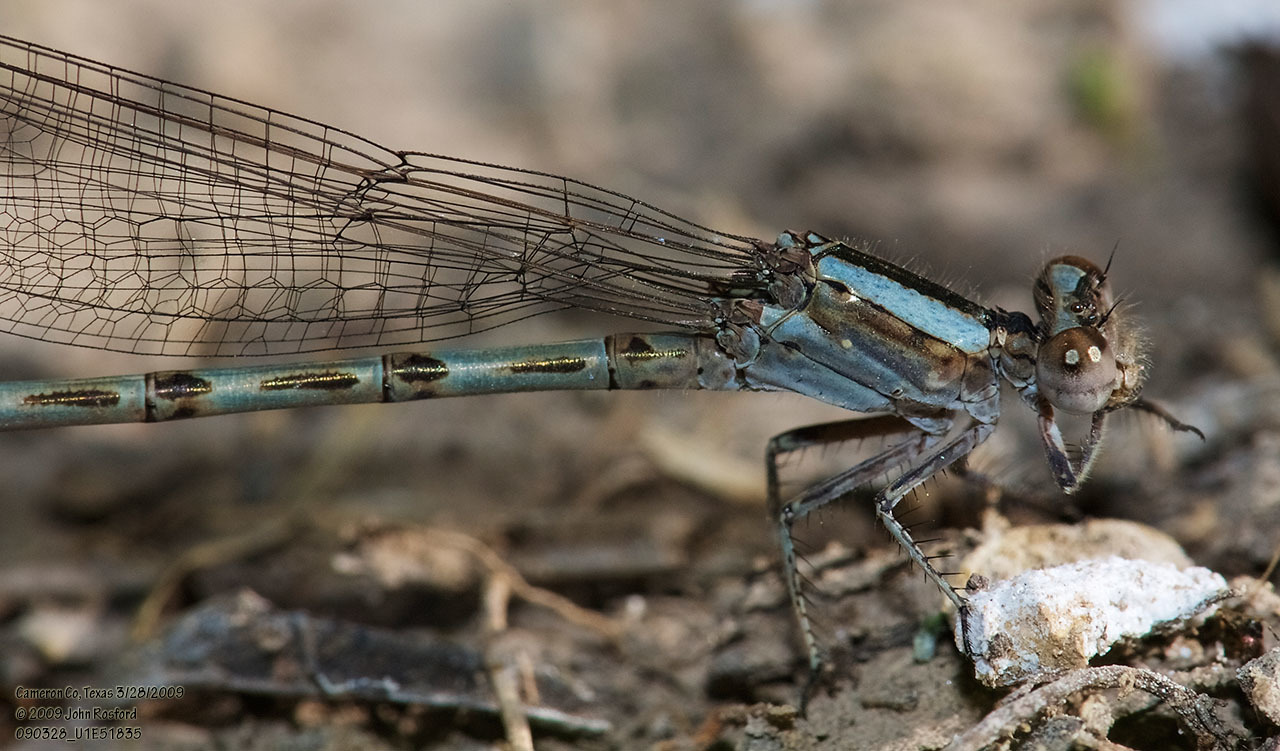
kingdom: Animalia
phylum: Arthropoda
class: Insecta
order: Odonata
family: Coenagrionidae
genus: Argia
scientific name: Argia immunda
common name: Kiowa dancer
